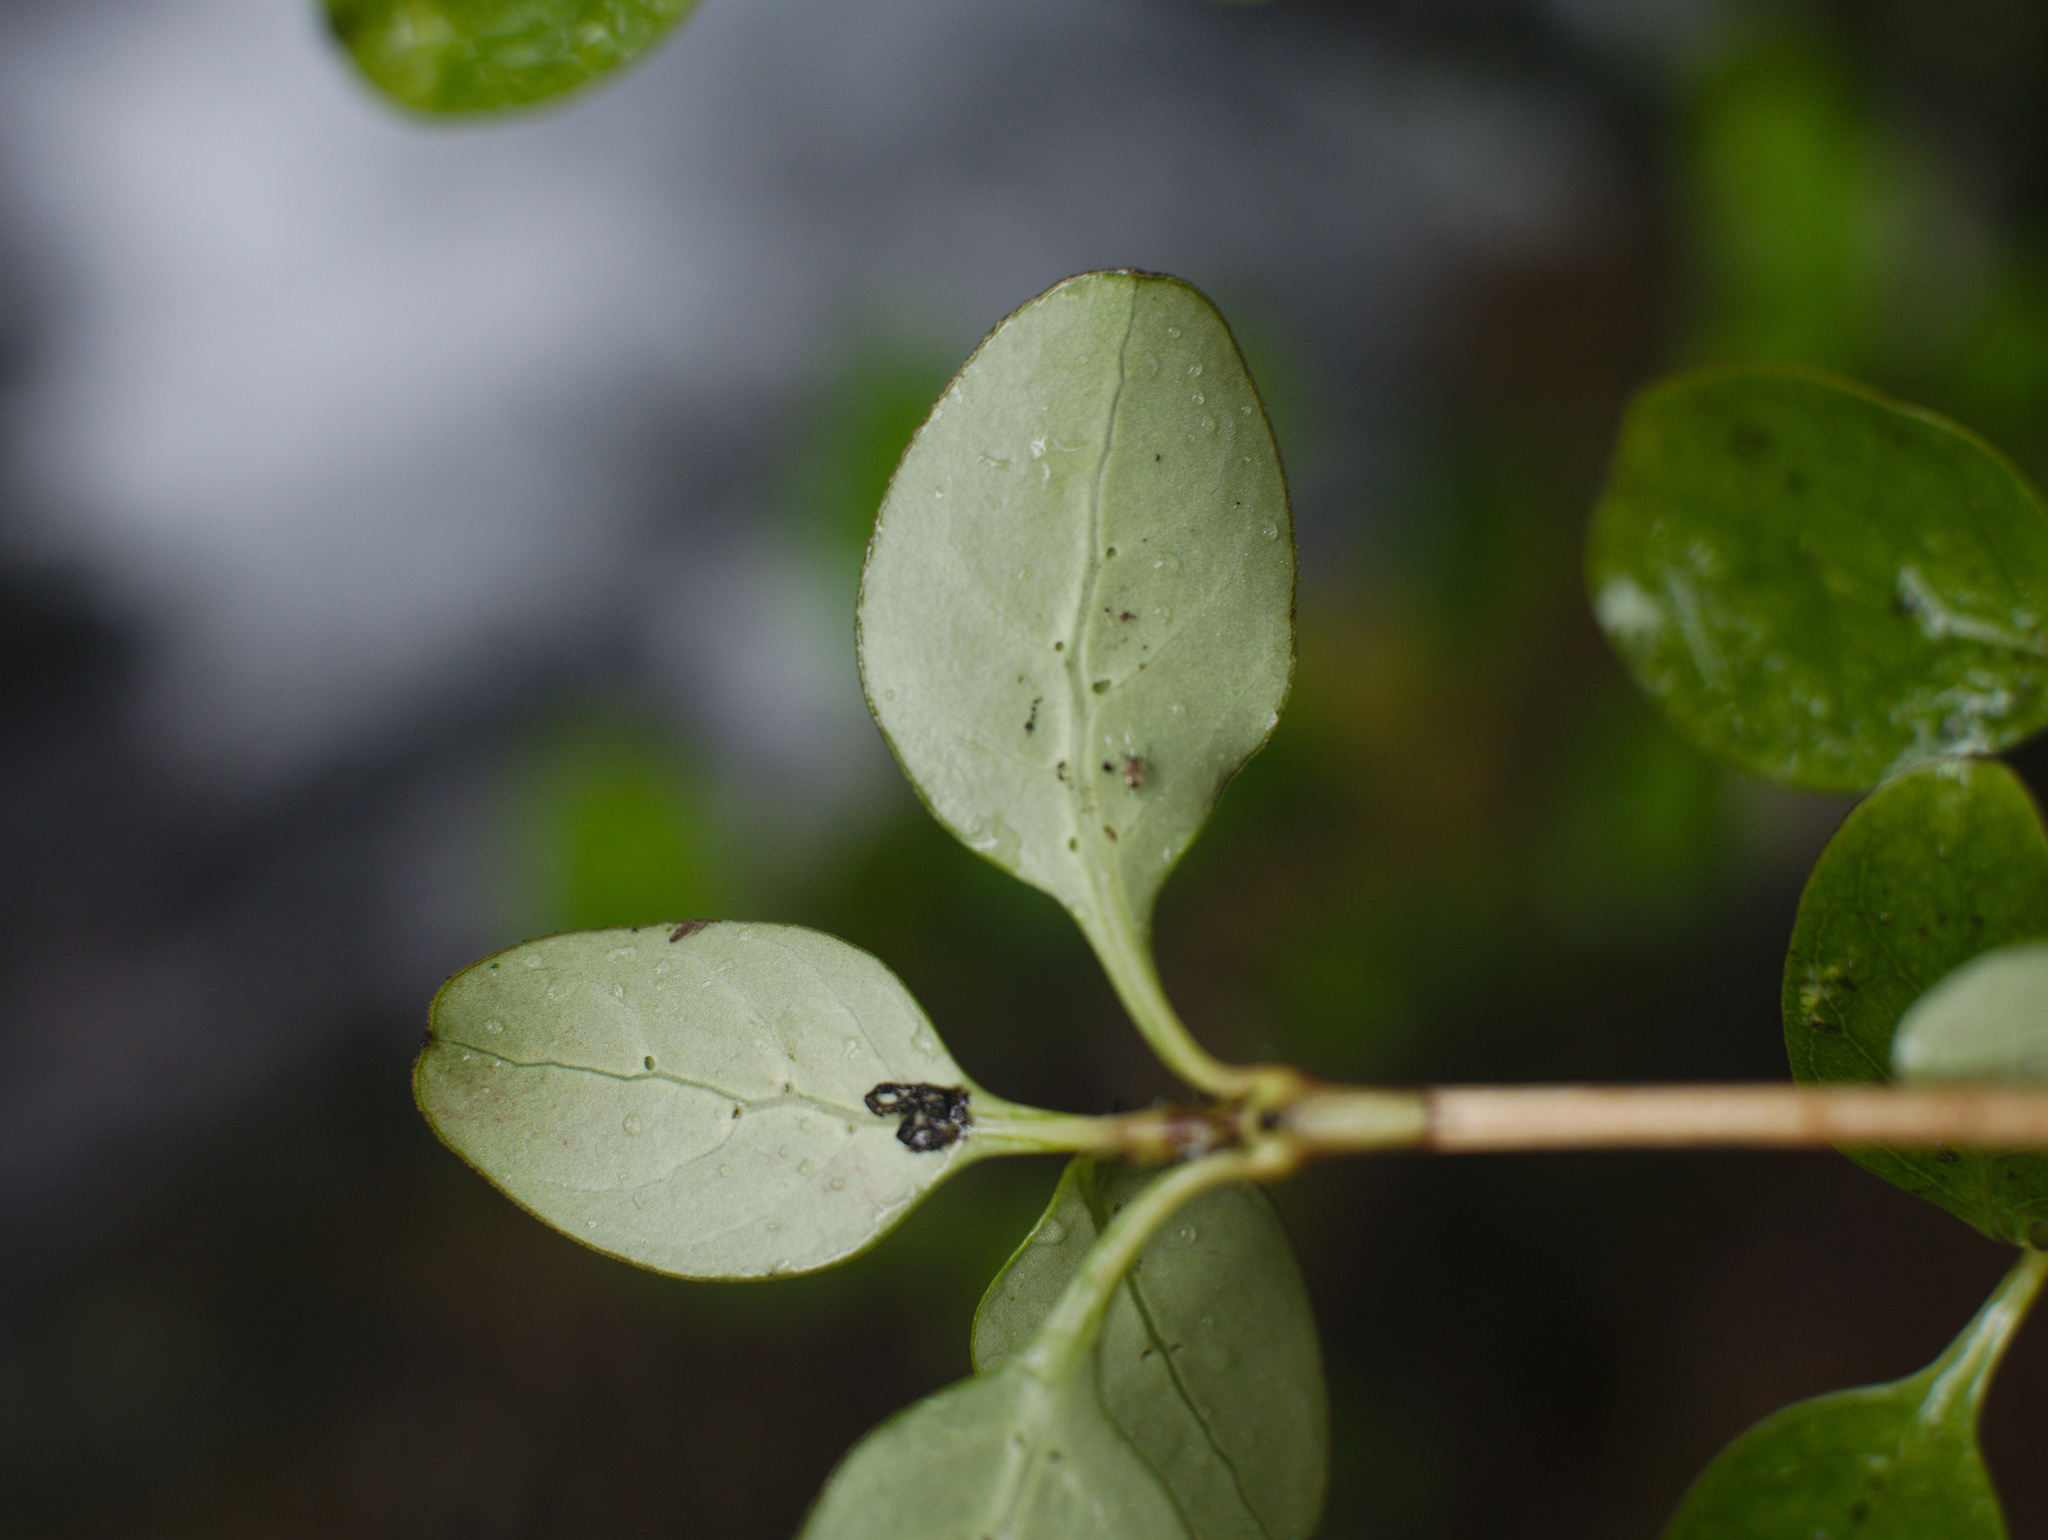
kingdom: Plantae
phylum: Tracheophyta
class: Magnoliopsida
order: Gentianales
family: Rubiaceae
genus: Coprosma
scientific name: Coprosma foetidissima
